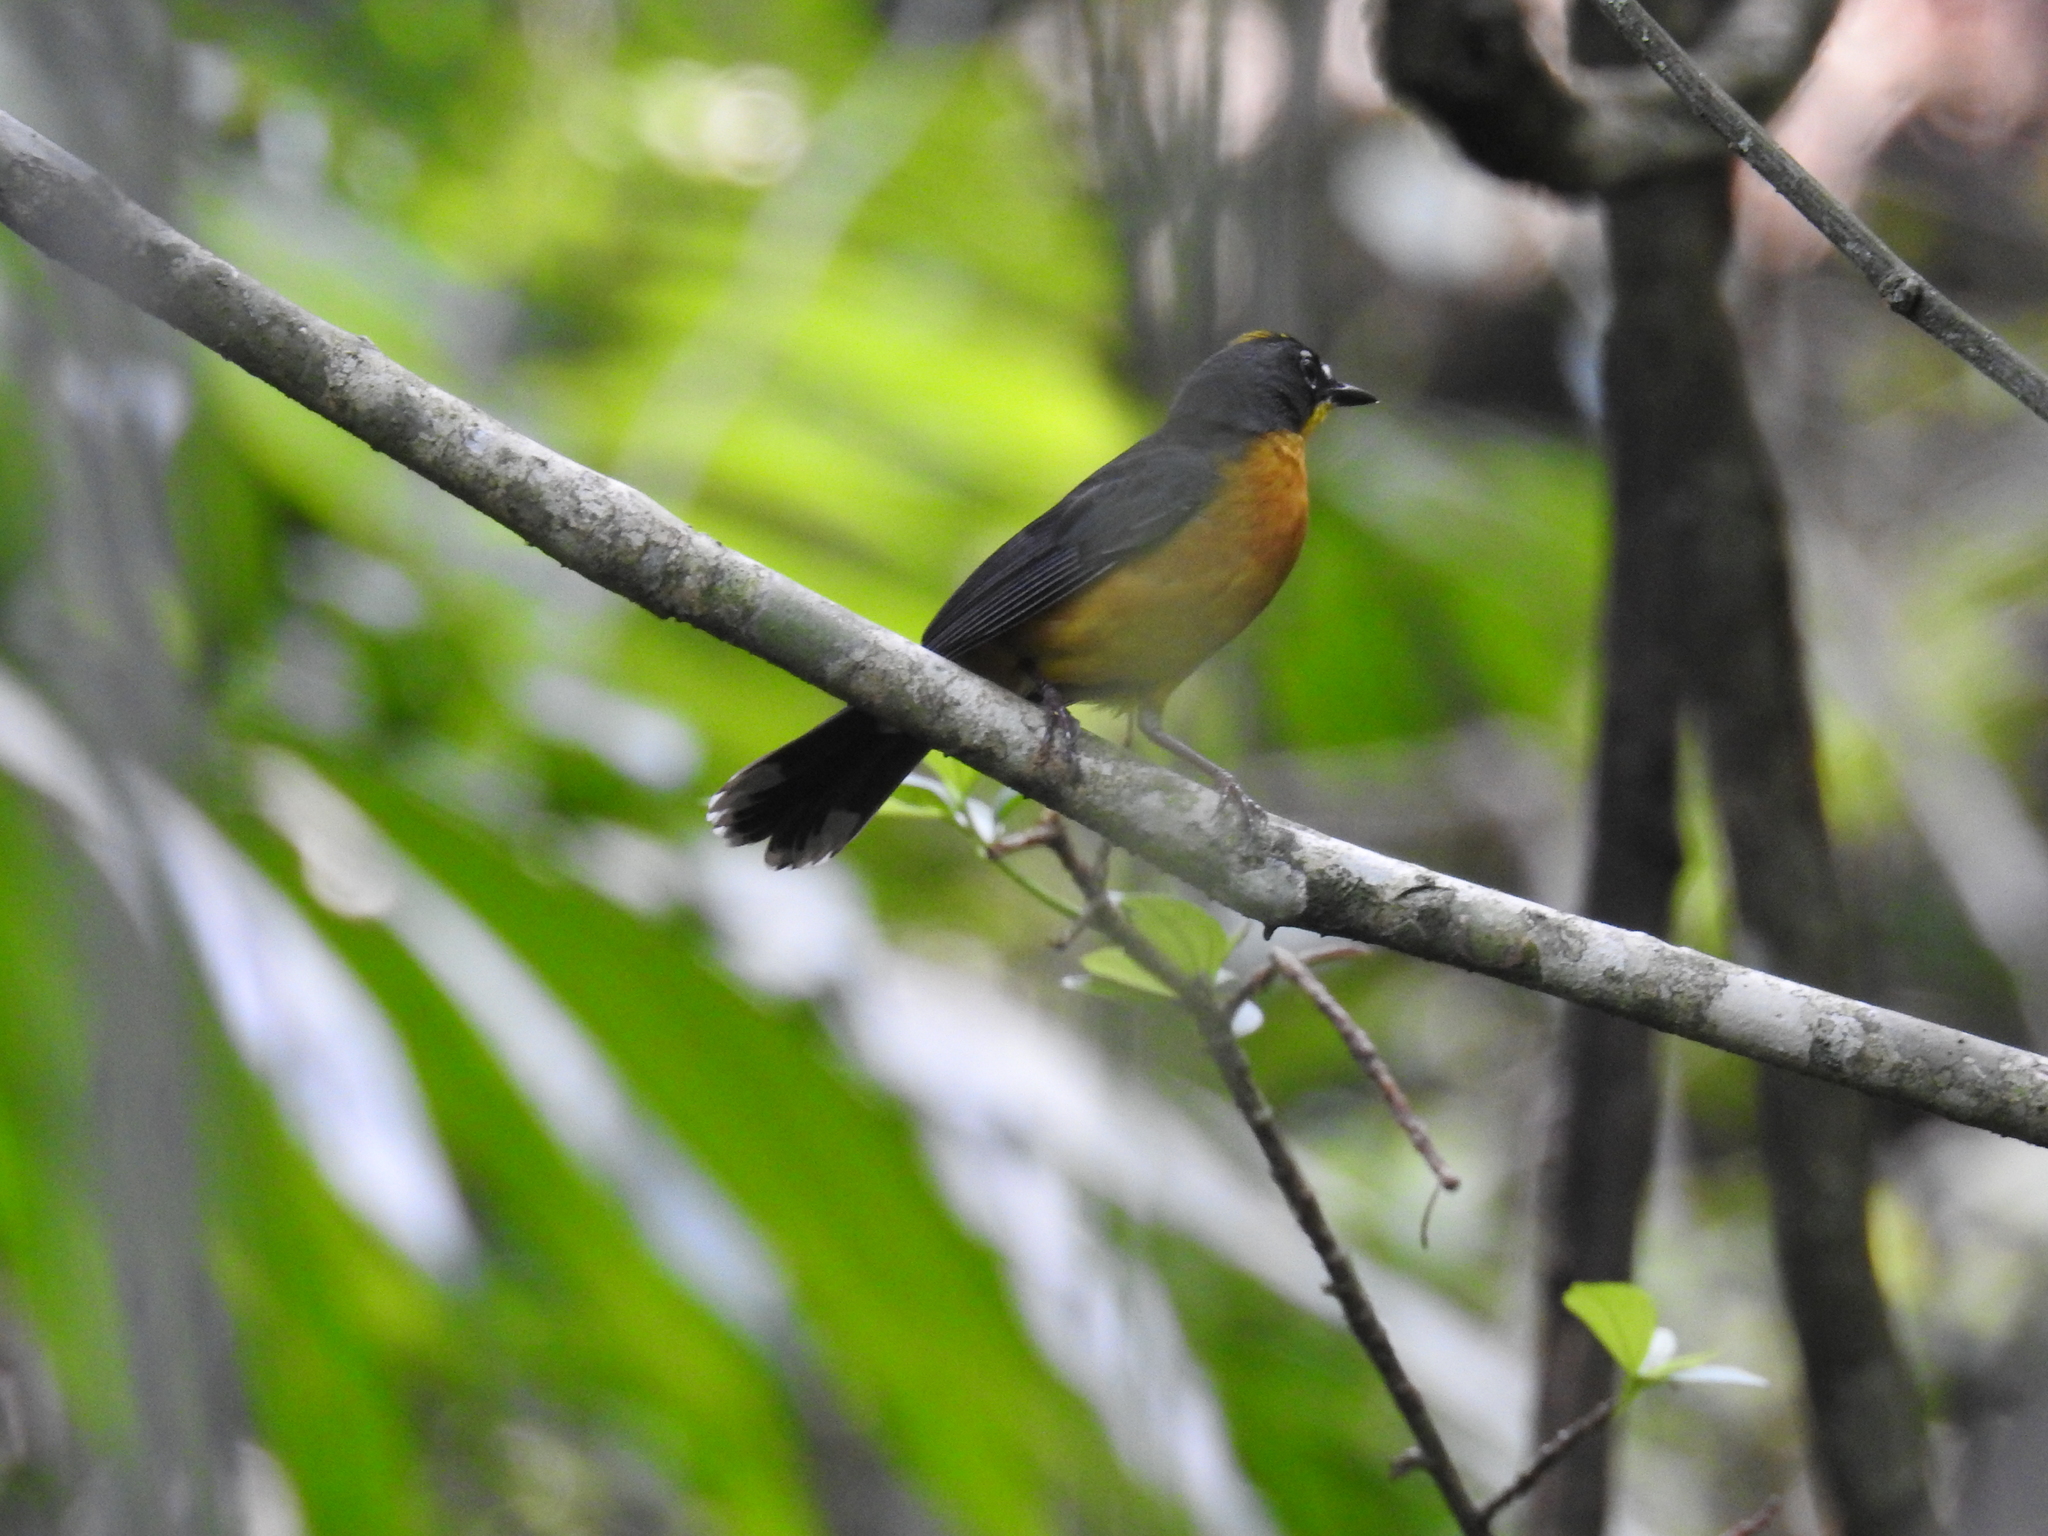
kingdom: Animalia
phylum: Chordata
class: Aves
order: Passeriformes
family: Parulidae
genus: Basileuterus
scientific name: Basileuterus lachrymosus
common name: Fan-tailed warbler
